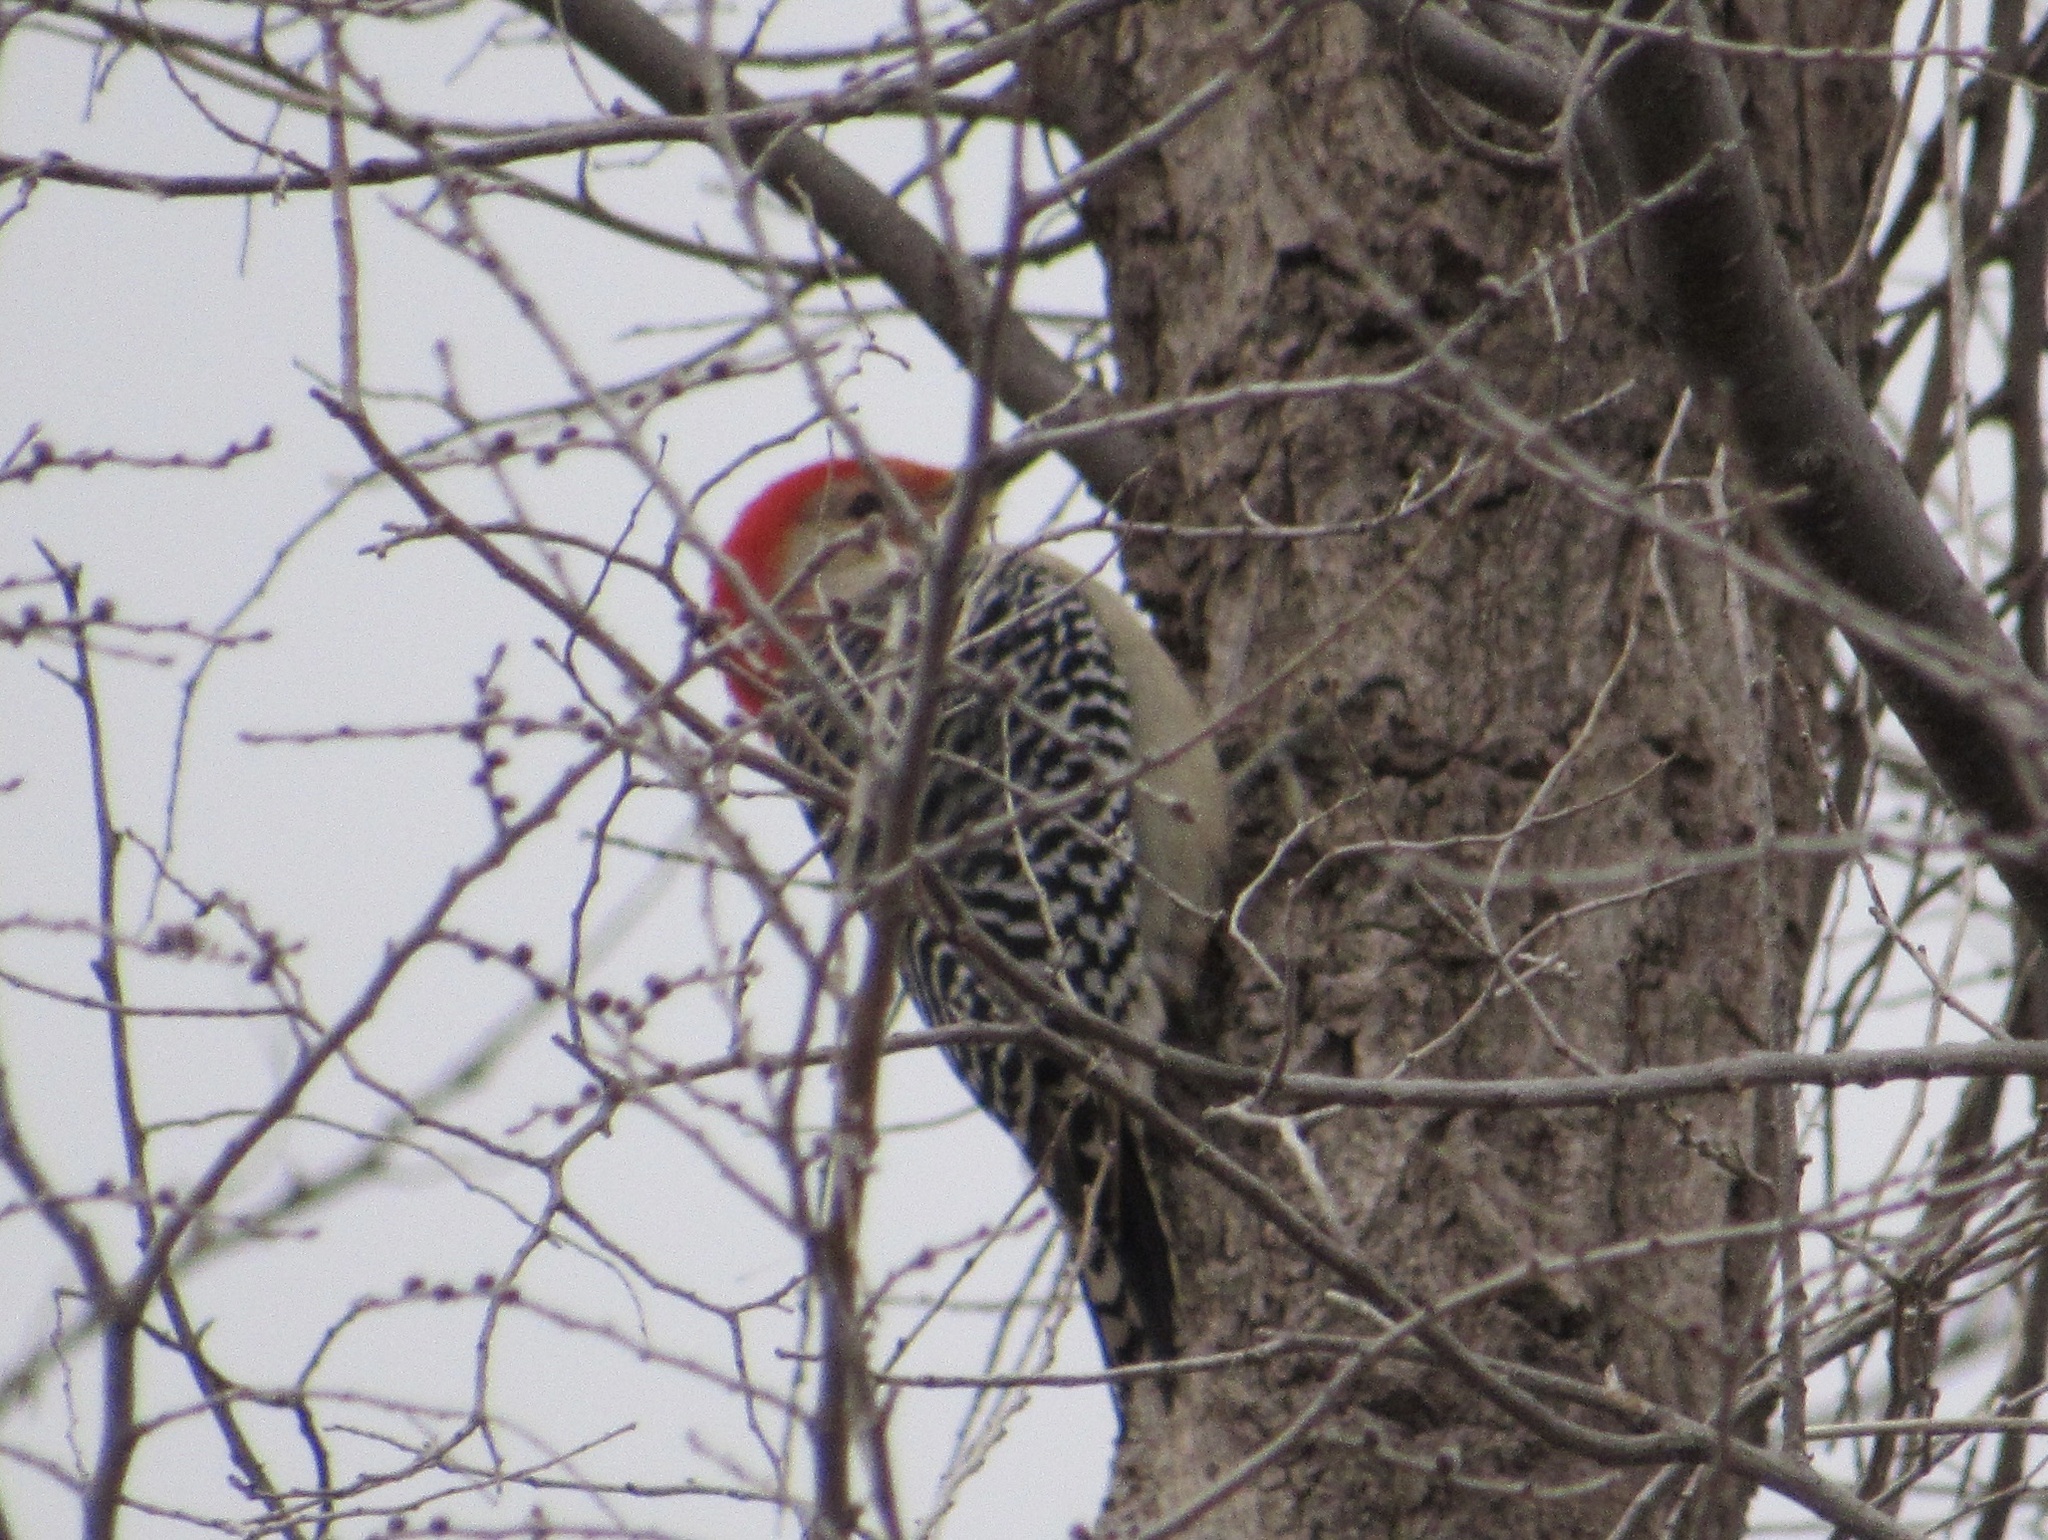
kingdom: Animalia
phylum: Chordata
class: Aves
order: Piciformes
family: Picidae
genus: Melanerpes
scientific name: Melanerpes carolinus
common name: Red-bellied woodpecker
